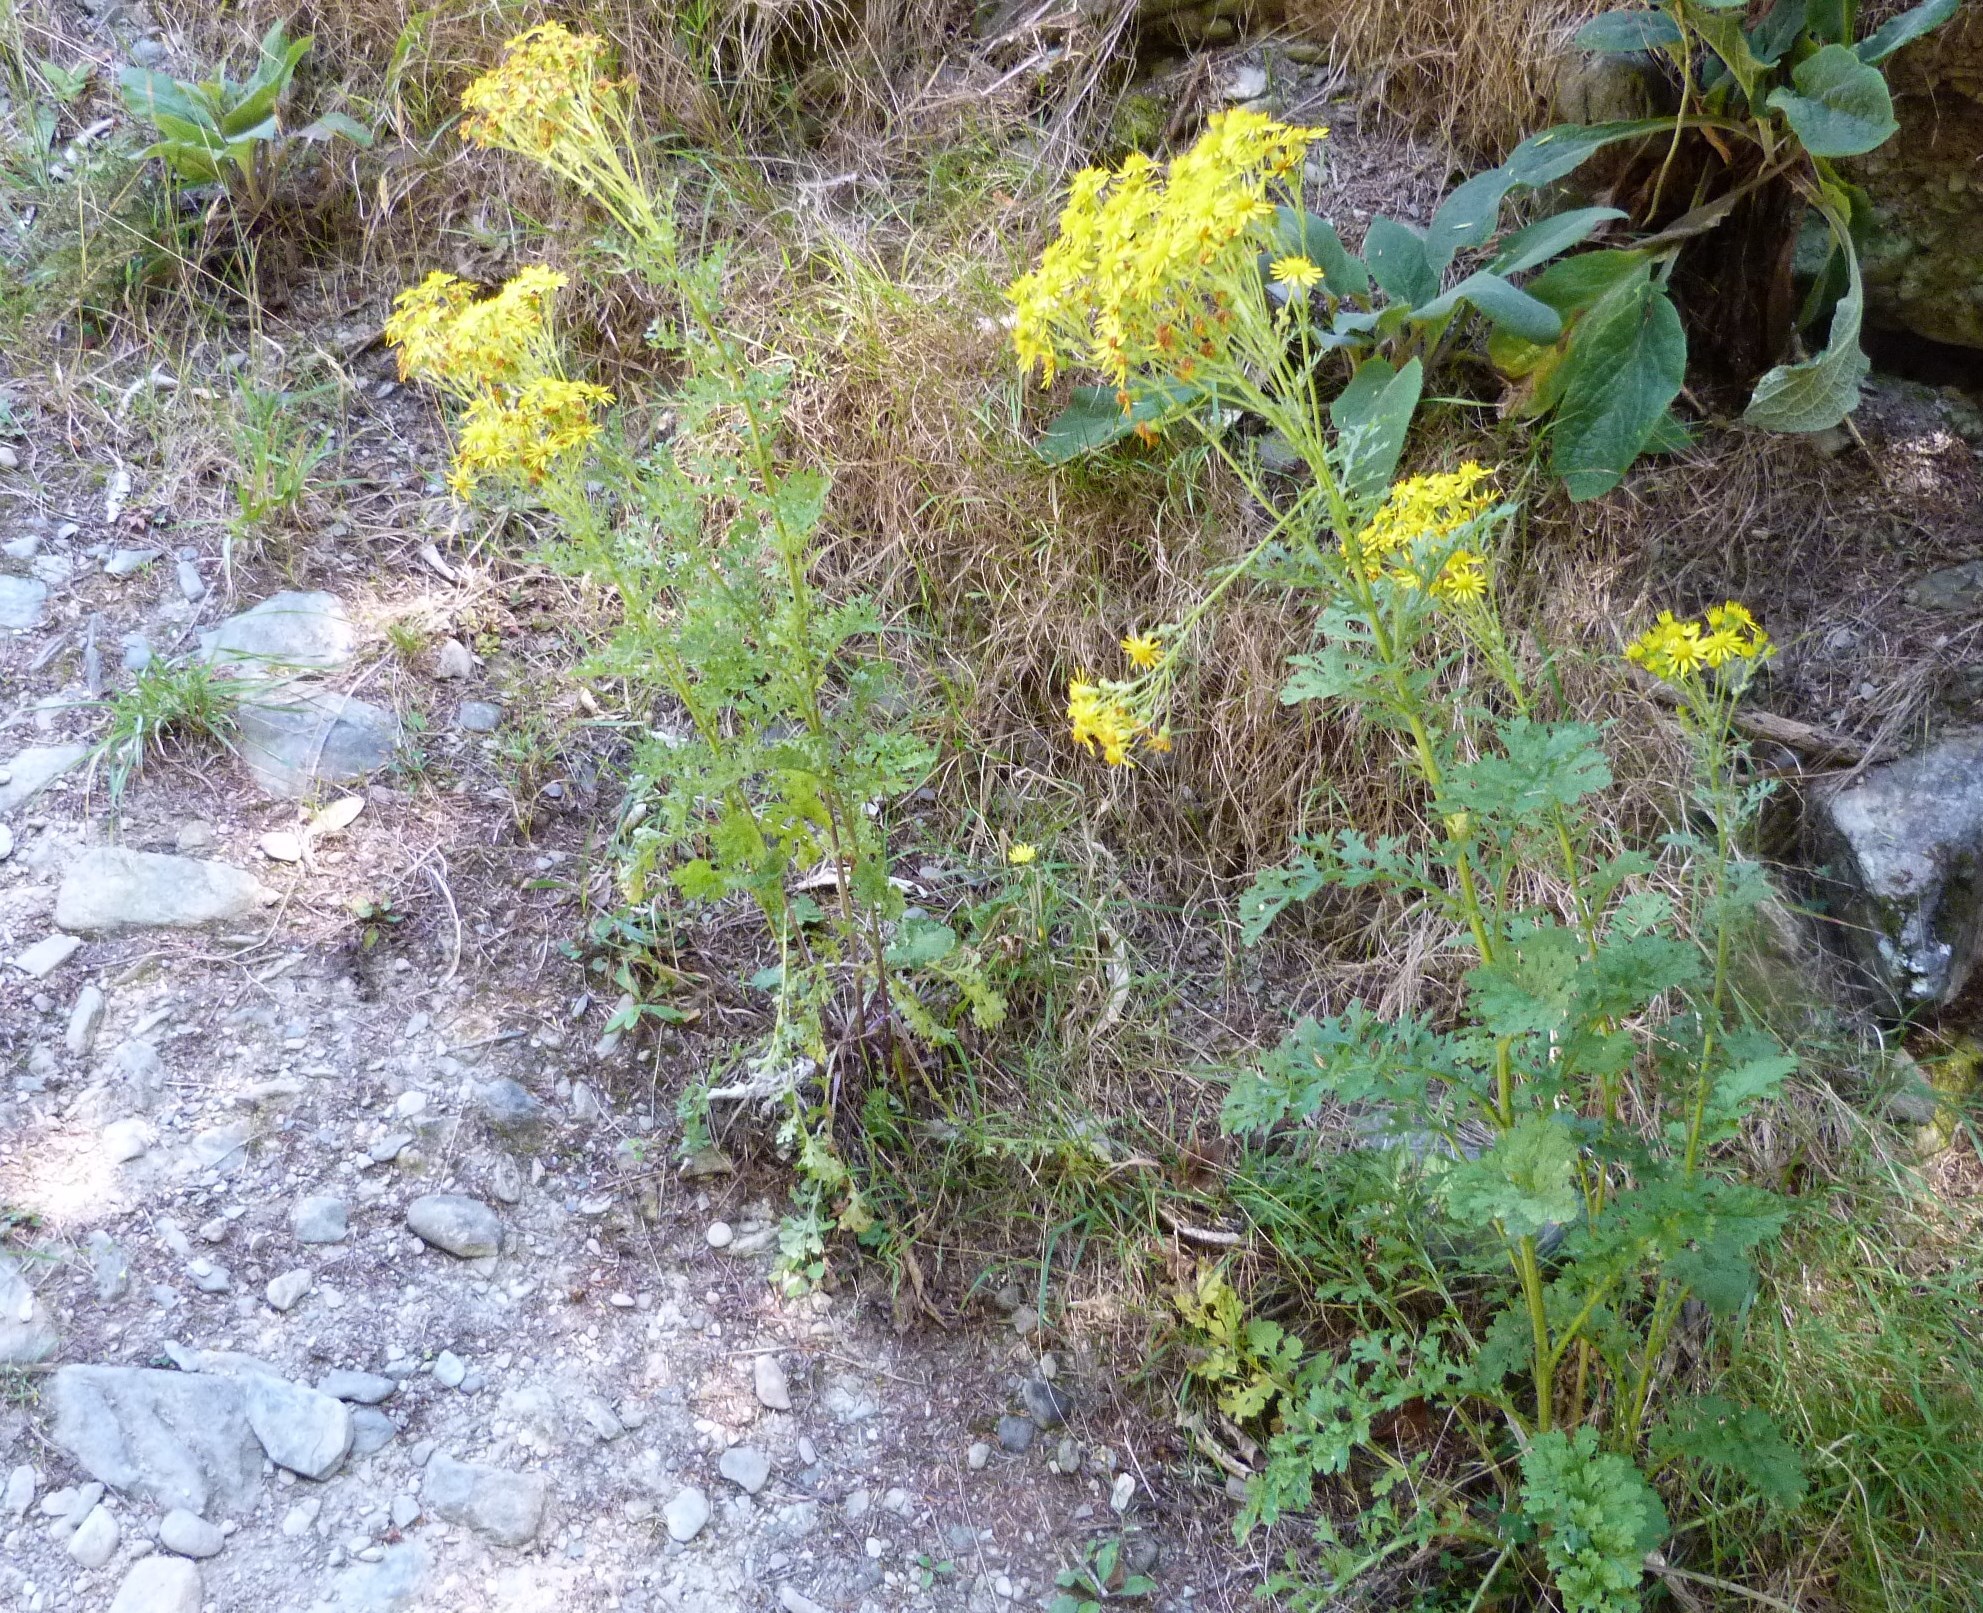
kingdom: Plantae
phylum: Tracheophyta
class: Magnoliopsida
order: Asterales
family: Asteraceae
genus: Jacobaea
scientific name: Jacobaea vulgaris
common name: Stinking willie
